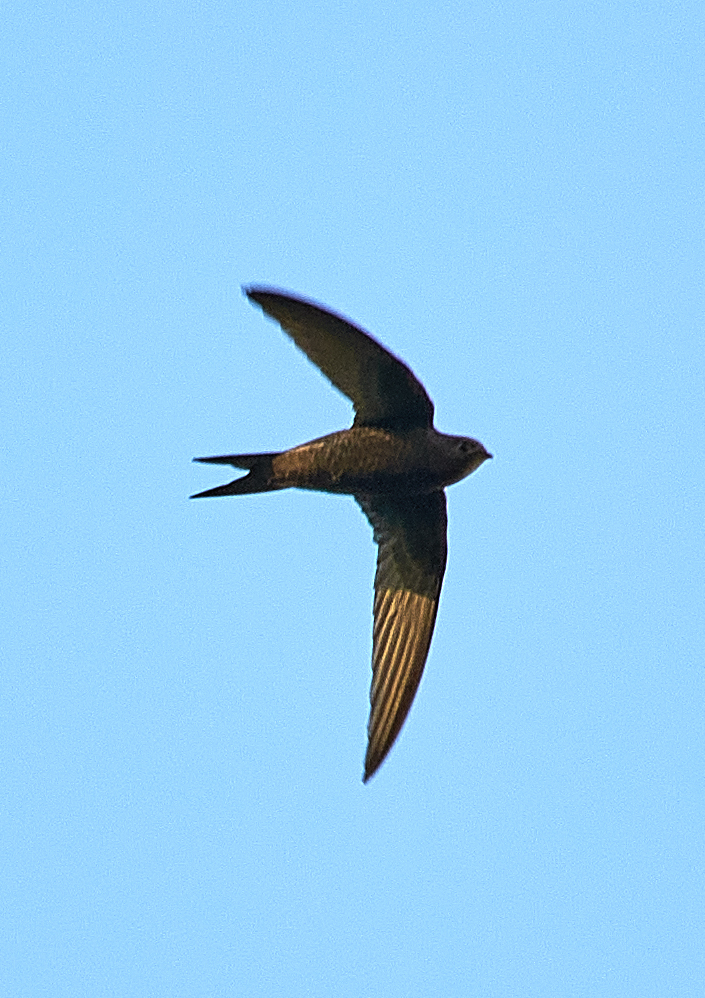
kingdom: Animalia
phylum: Chordata
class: Aves
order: Apodiformes
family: Apodidae
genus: Apus
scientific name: Apus apus
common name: Common swift
